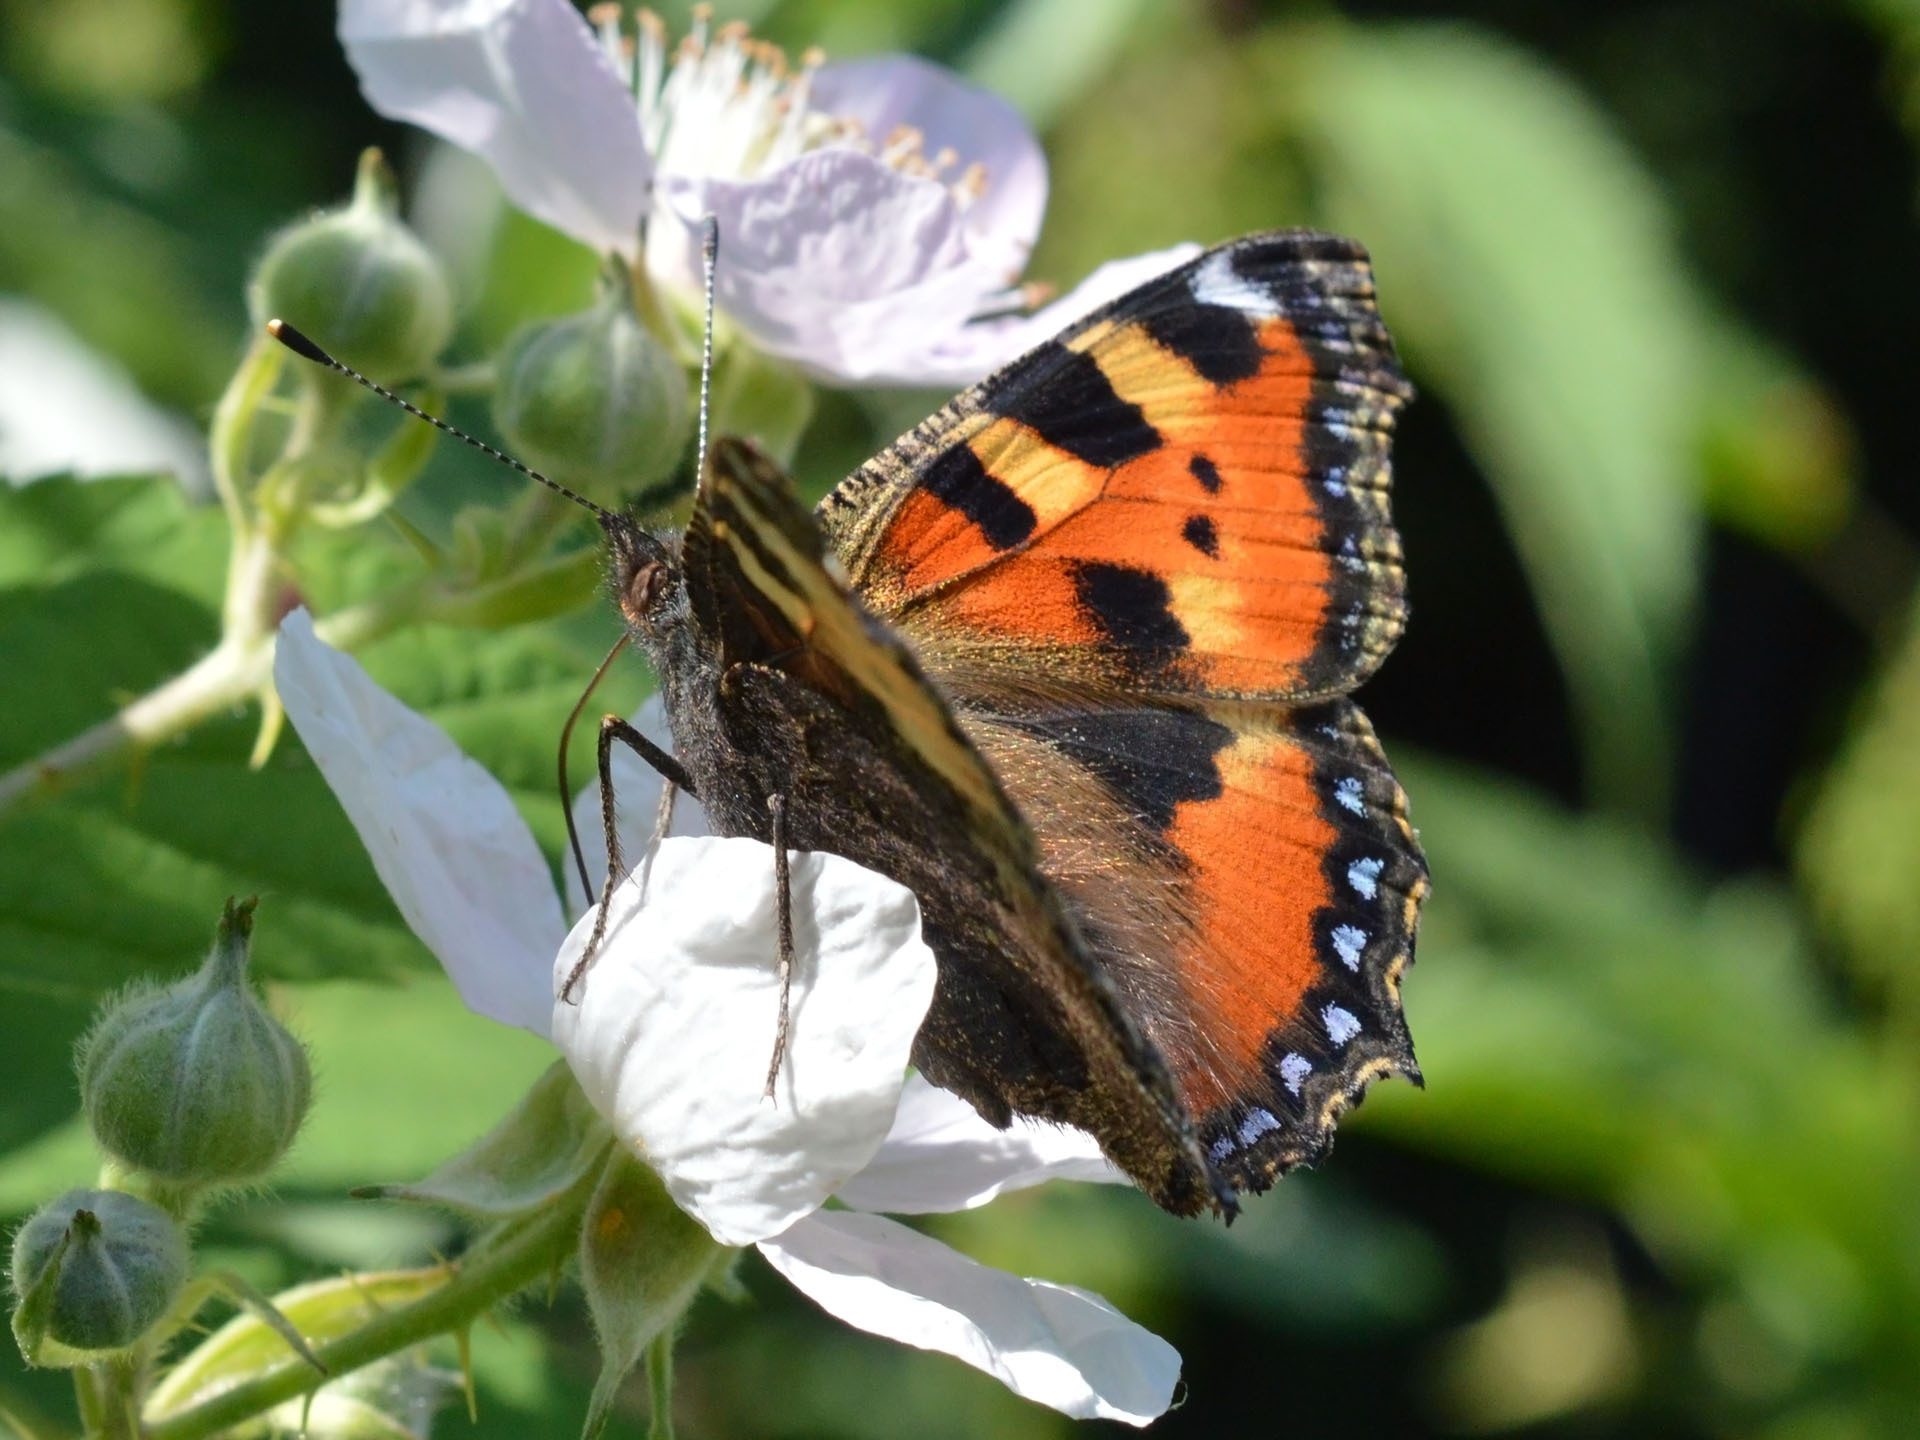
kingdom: Animalia
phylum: Arthropoda
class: Insecta
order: Lepidoptera
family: Nymphalidae
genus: Aglais
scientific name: Aglais urticae
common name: Small tortoiseshell
